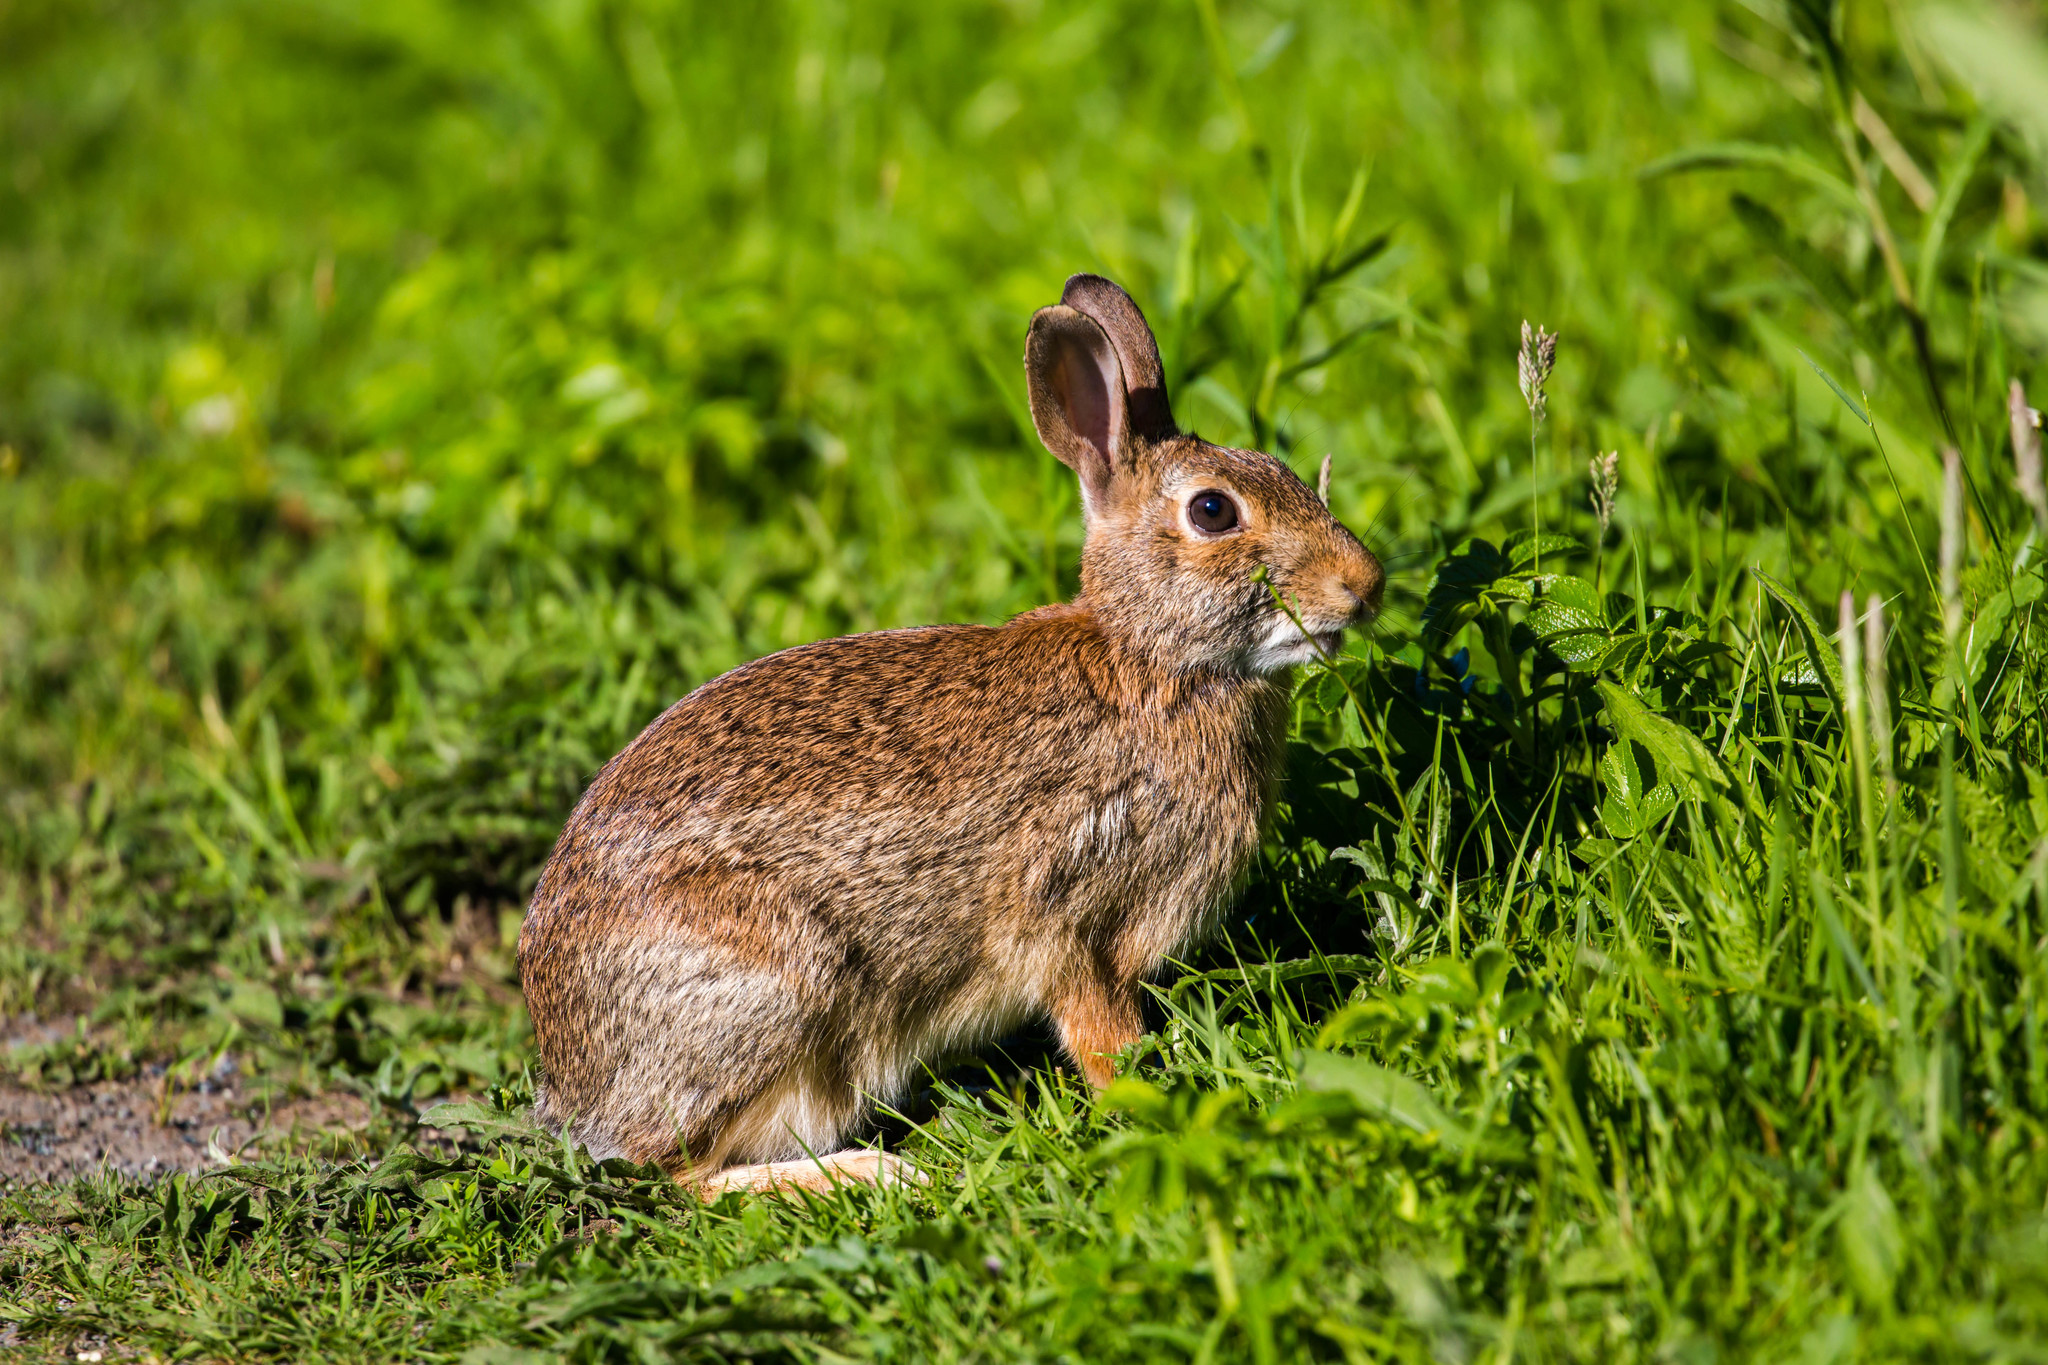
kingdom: Animalia
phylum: Chordata
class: Mammalia
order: Lagomorpha
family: Leporidae
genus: Sylvilagus
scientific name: Sylvilagus floridanus
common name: Eastern cottontail
